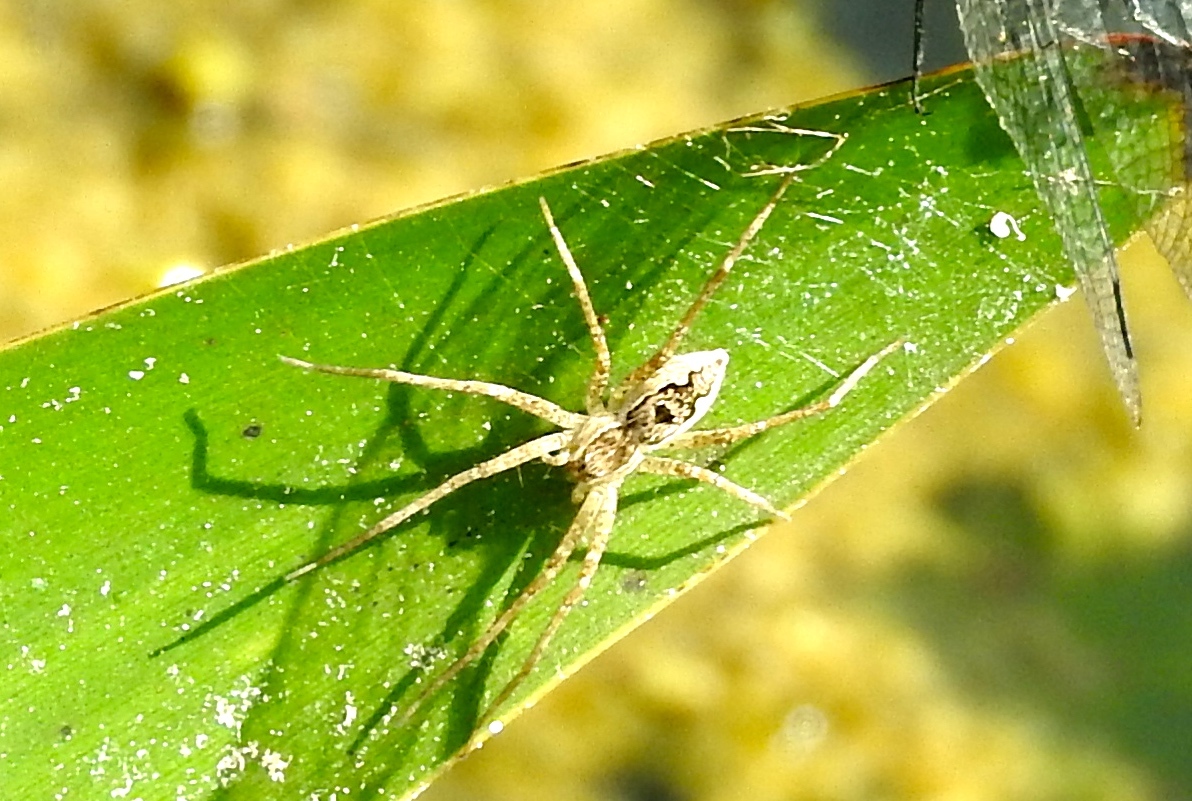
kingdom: Animalia
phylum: Arthropoda
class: Arachnida
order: Araneae
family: Pisauridae
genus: Tinus
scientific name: Tinus
